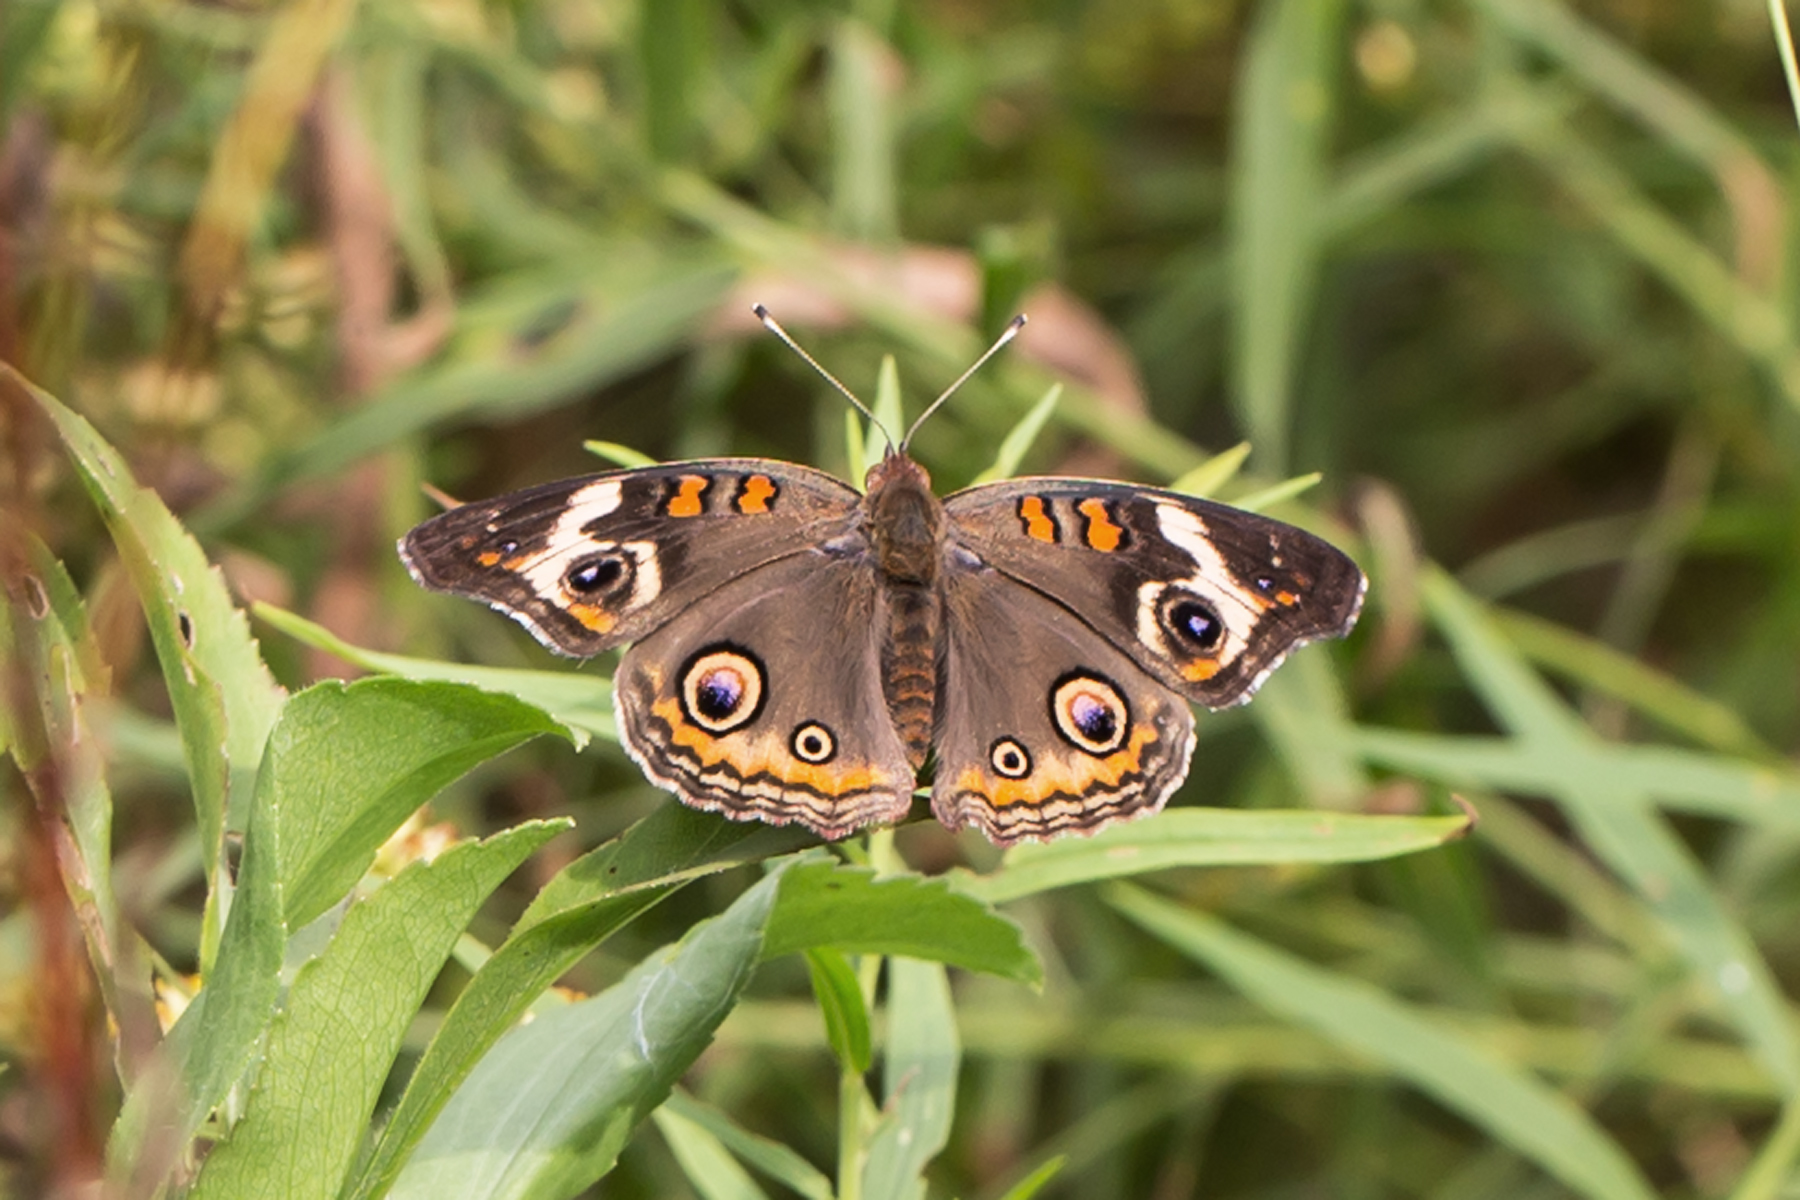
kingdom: Animalia
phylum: Arthropoda
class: Insecta
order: Lepidoptera
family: Nymphalidae
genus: Junonia
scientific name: Junonia coenia
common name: Common buckeye
